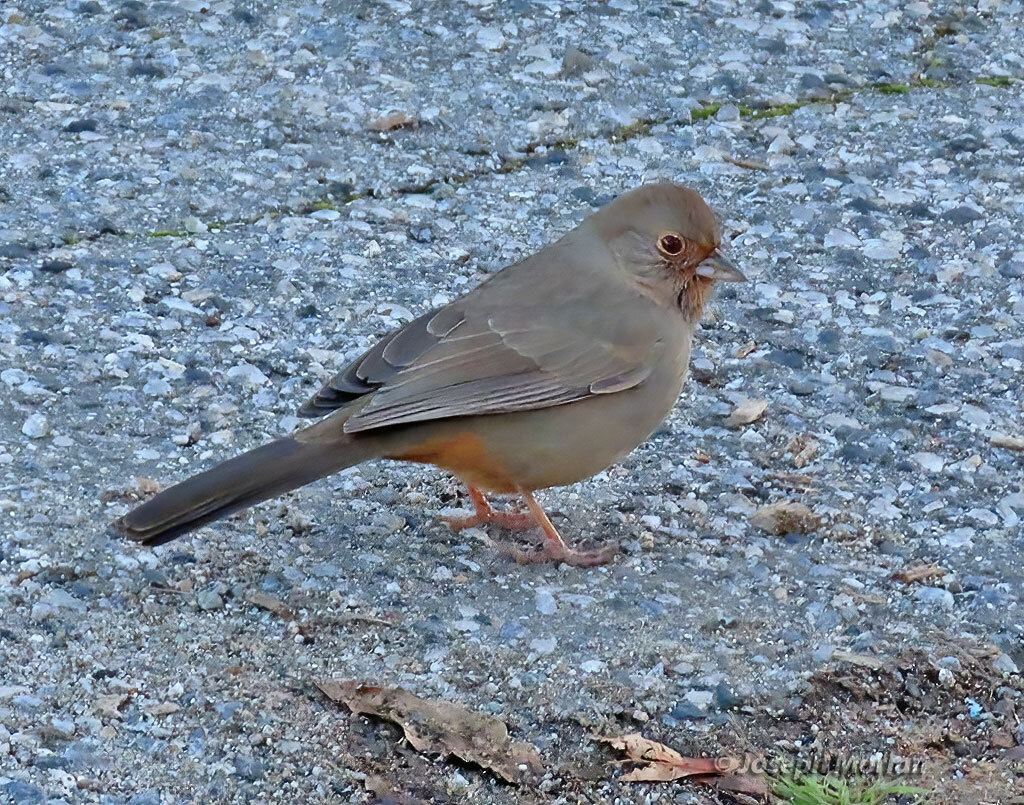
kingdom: Animalia
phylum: Chordata
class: Aves
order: Passeriformes
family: Passerellidae
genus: Melozone
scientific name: Melozone crissalis
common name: California towhee
